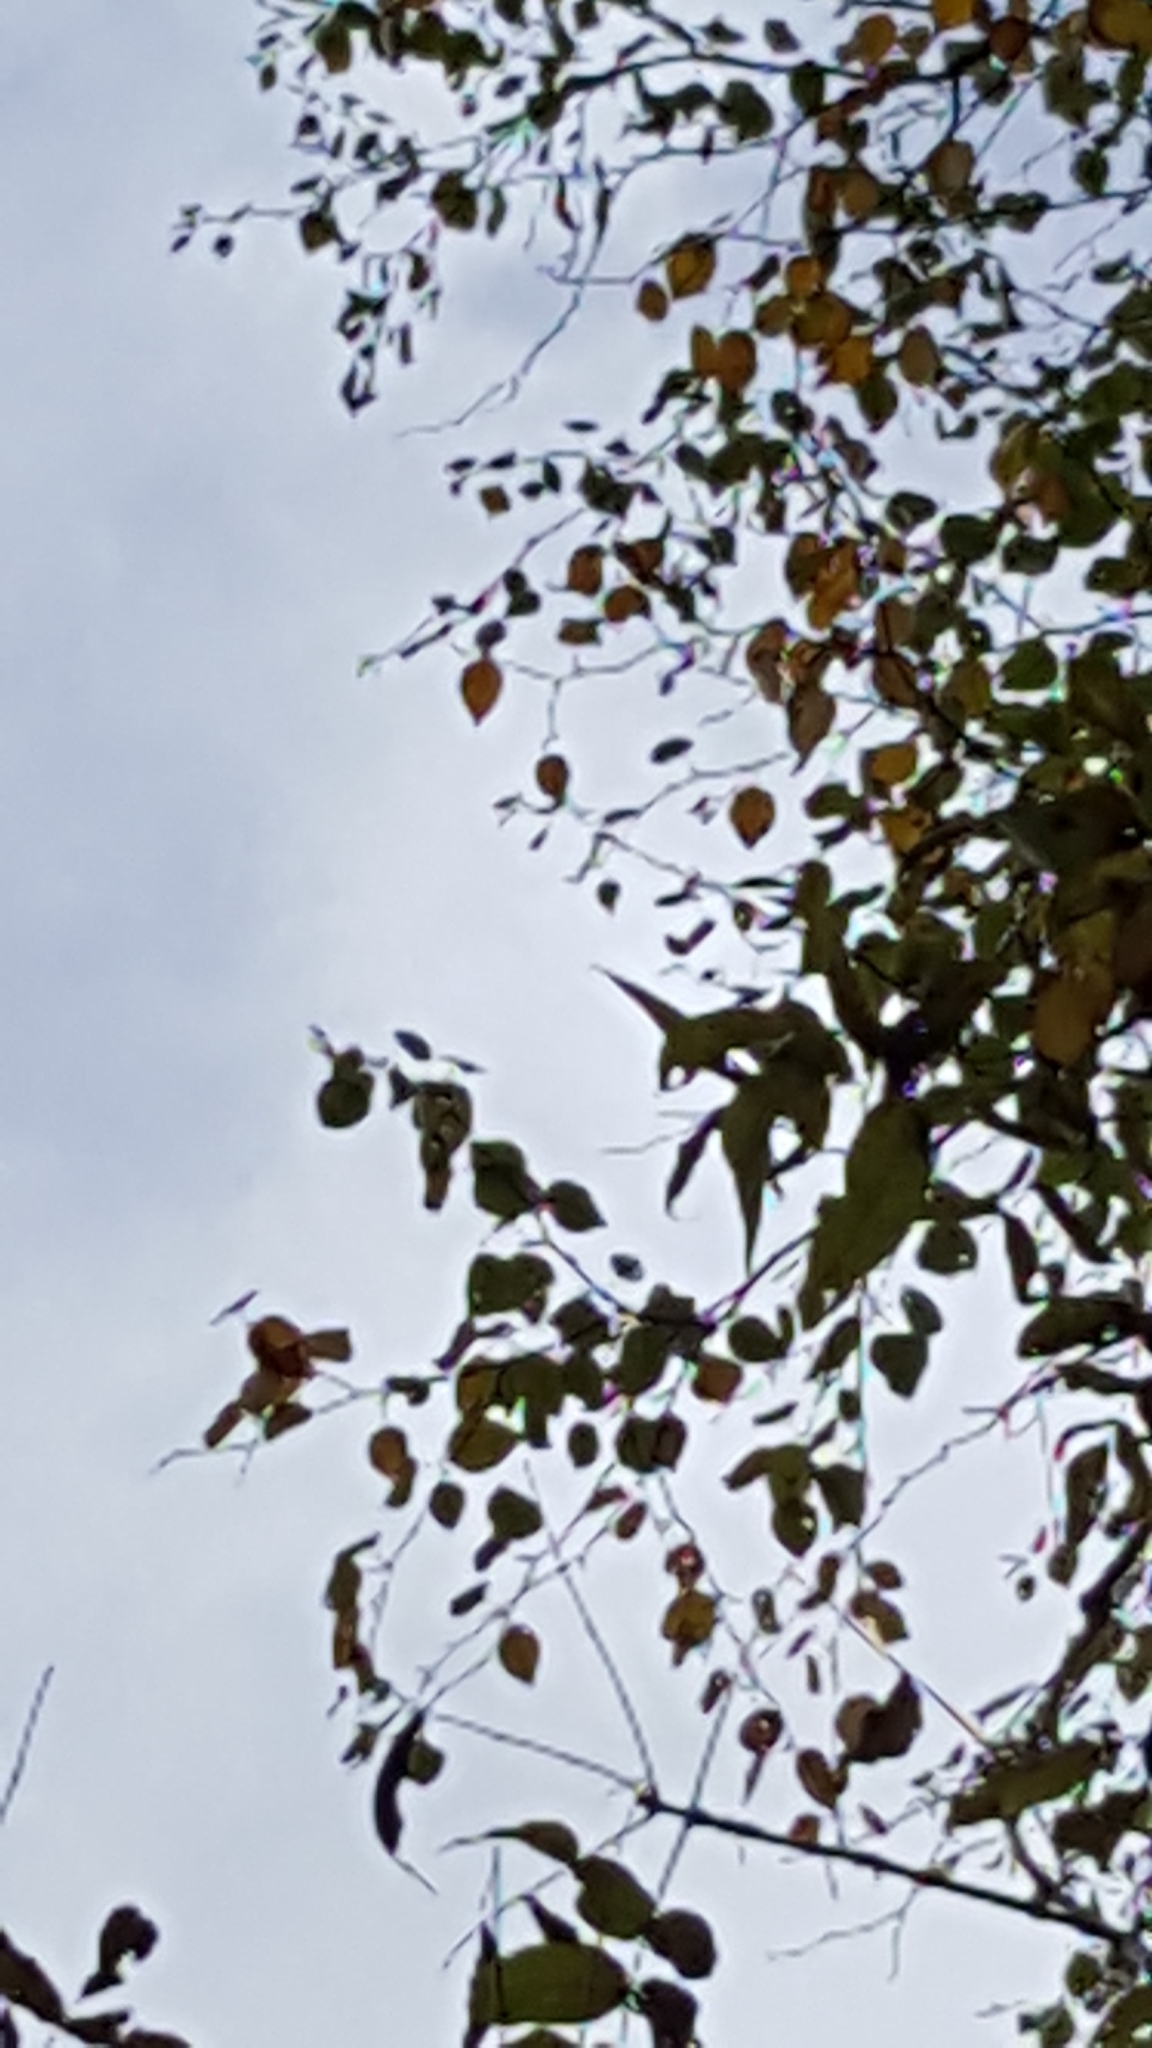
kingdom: Plantae
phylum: Tracheophyta
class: Magnoliopsida
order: Fagales
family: Betulaceae
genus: Betula
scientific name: Betula papyrifera
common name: Paper birch
